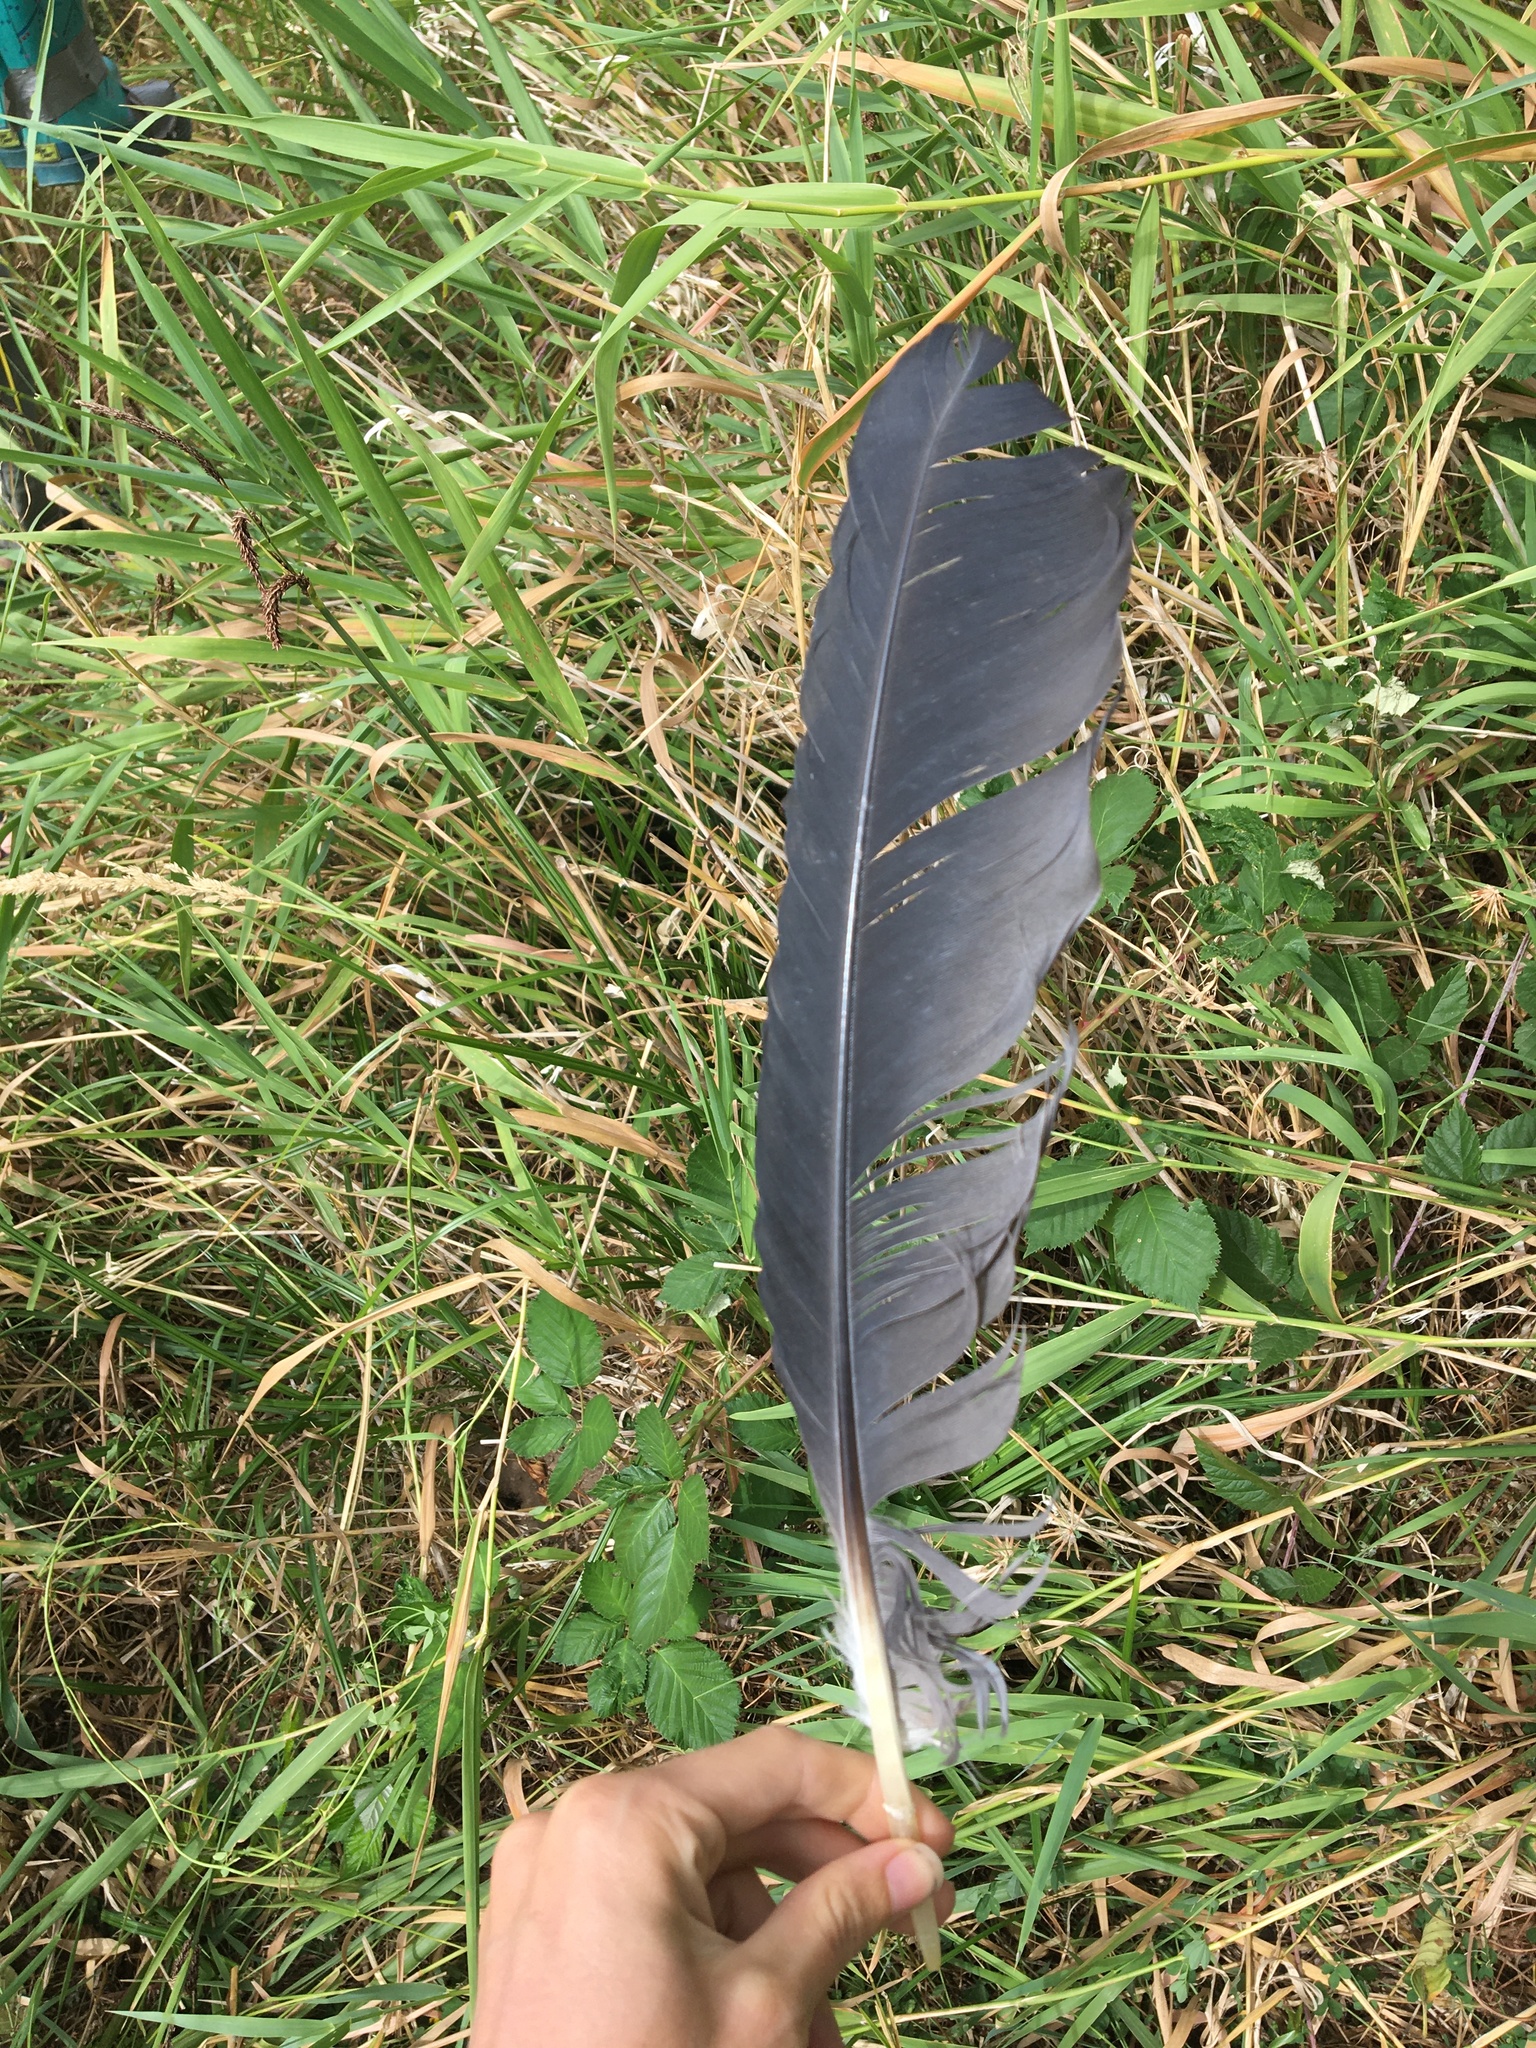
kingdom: Animalia
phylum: Chordata
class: Aves
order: Pelecaniformes
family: Ardeidae
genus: Ardea
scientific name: Ardea herodias
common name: Great blue heron
